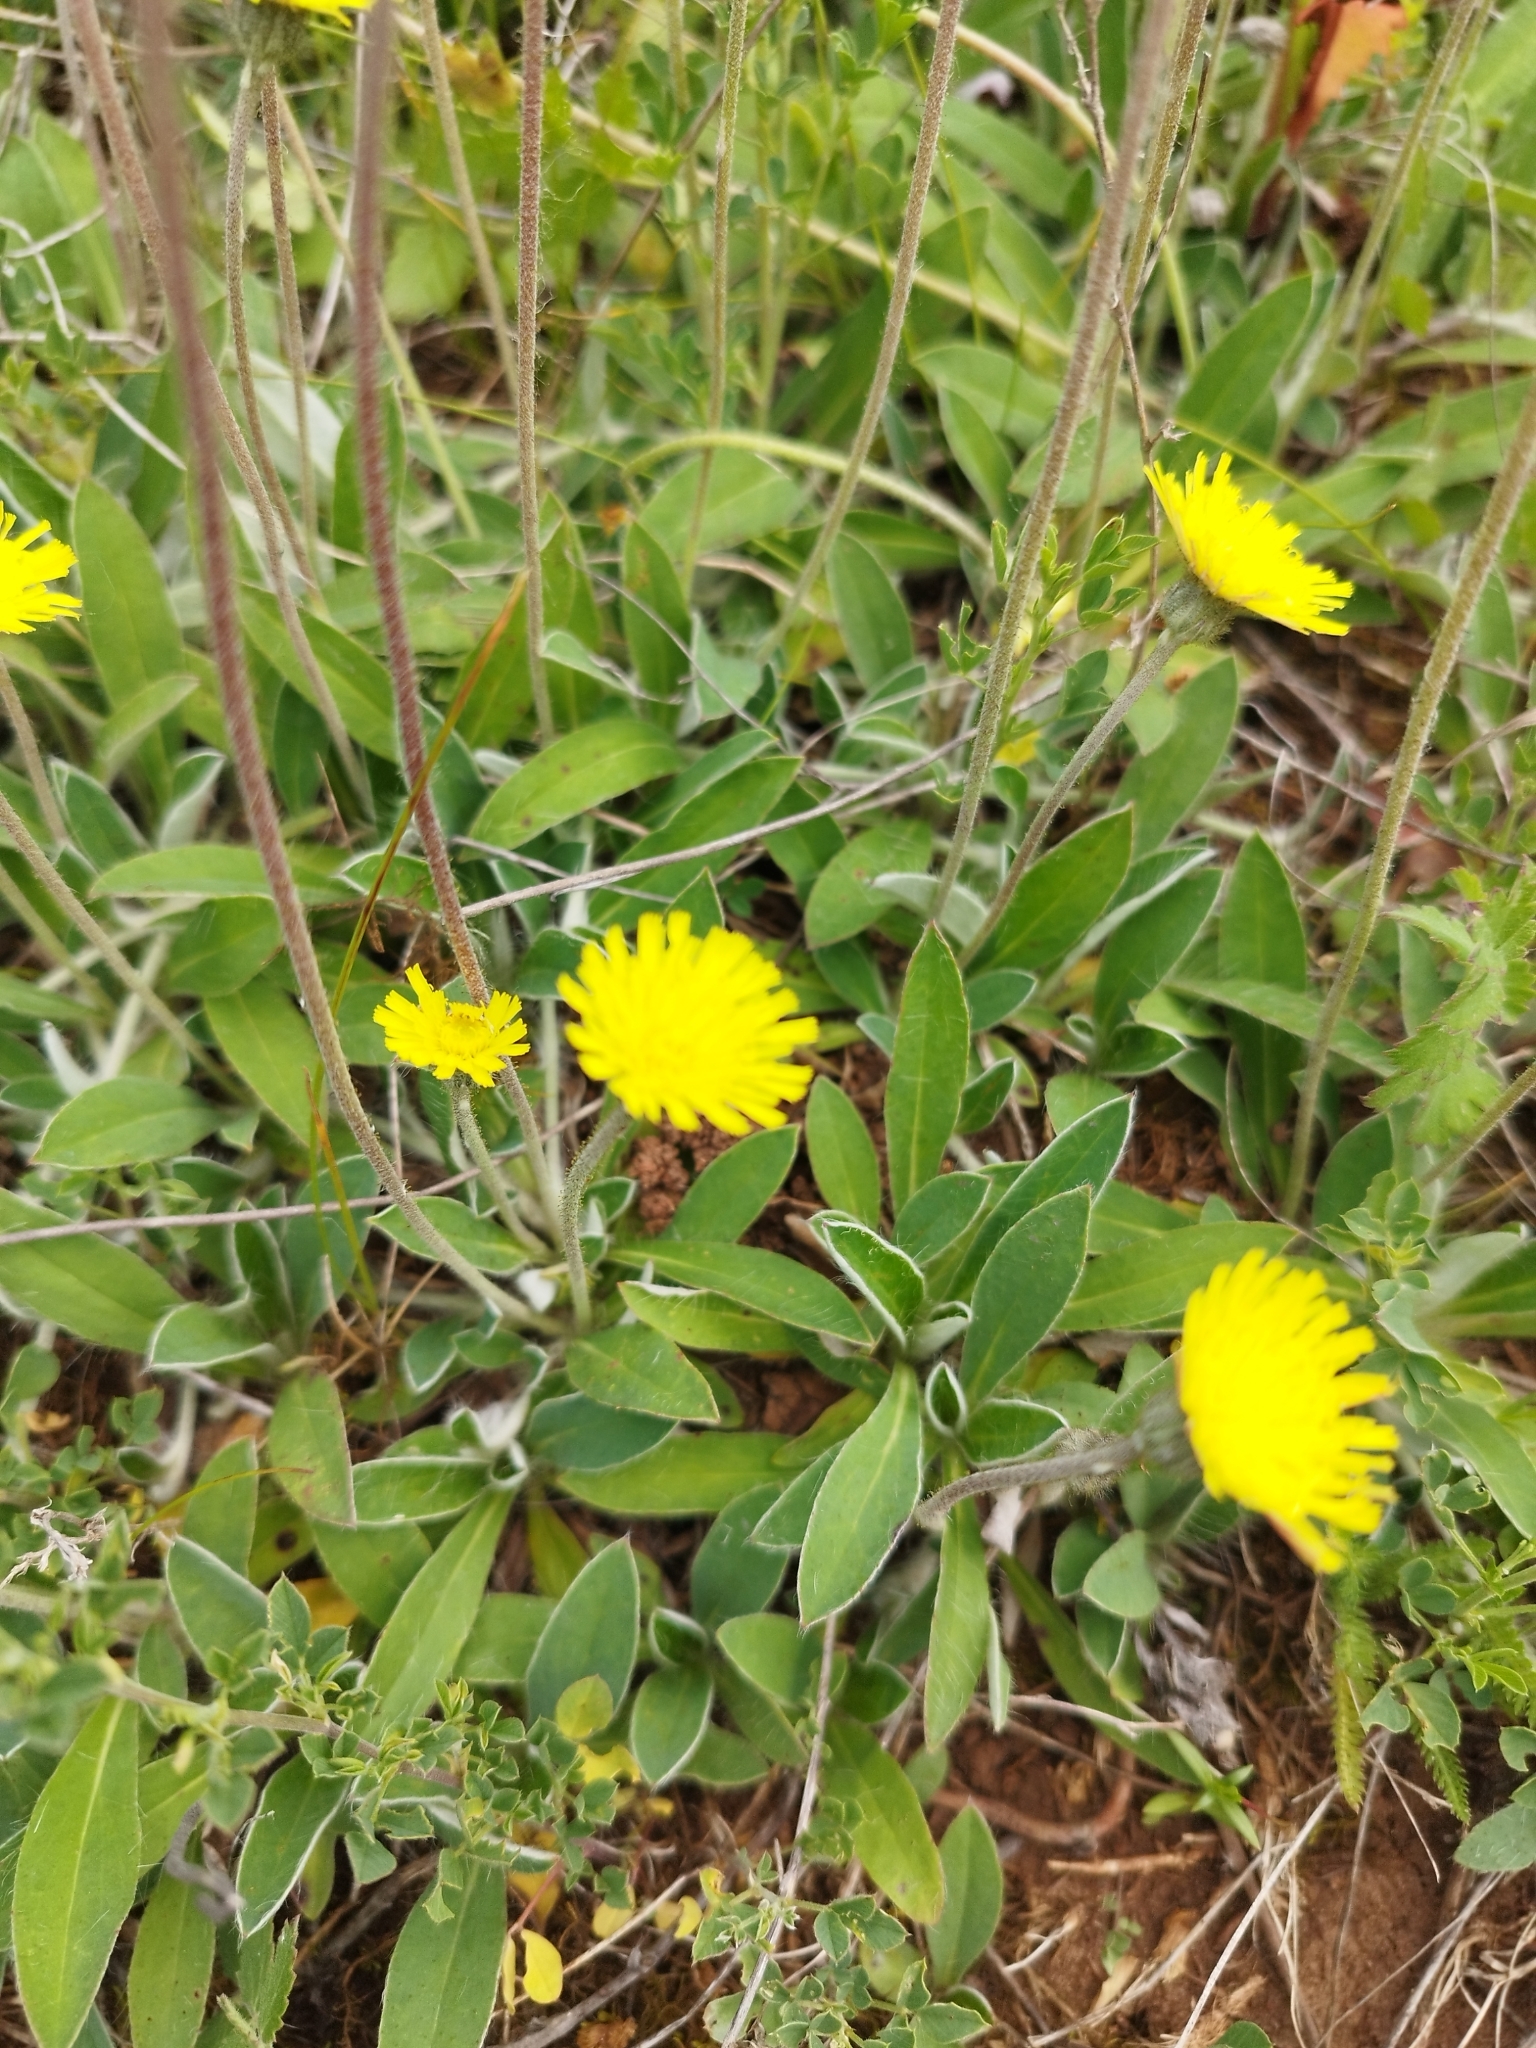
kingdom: Plantae
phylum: Tracheophyta
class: Magnoliopsida
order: Asterales
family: Asteraceae
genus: Pilosella
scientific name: Pilosella officinarum
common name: Mouse-ear hawkweed
